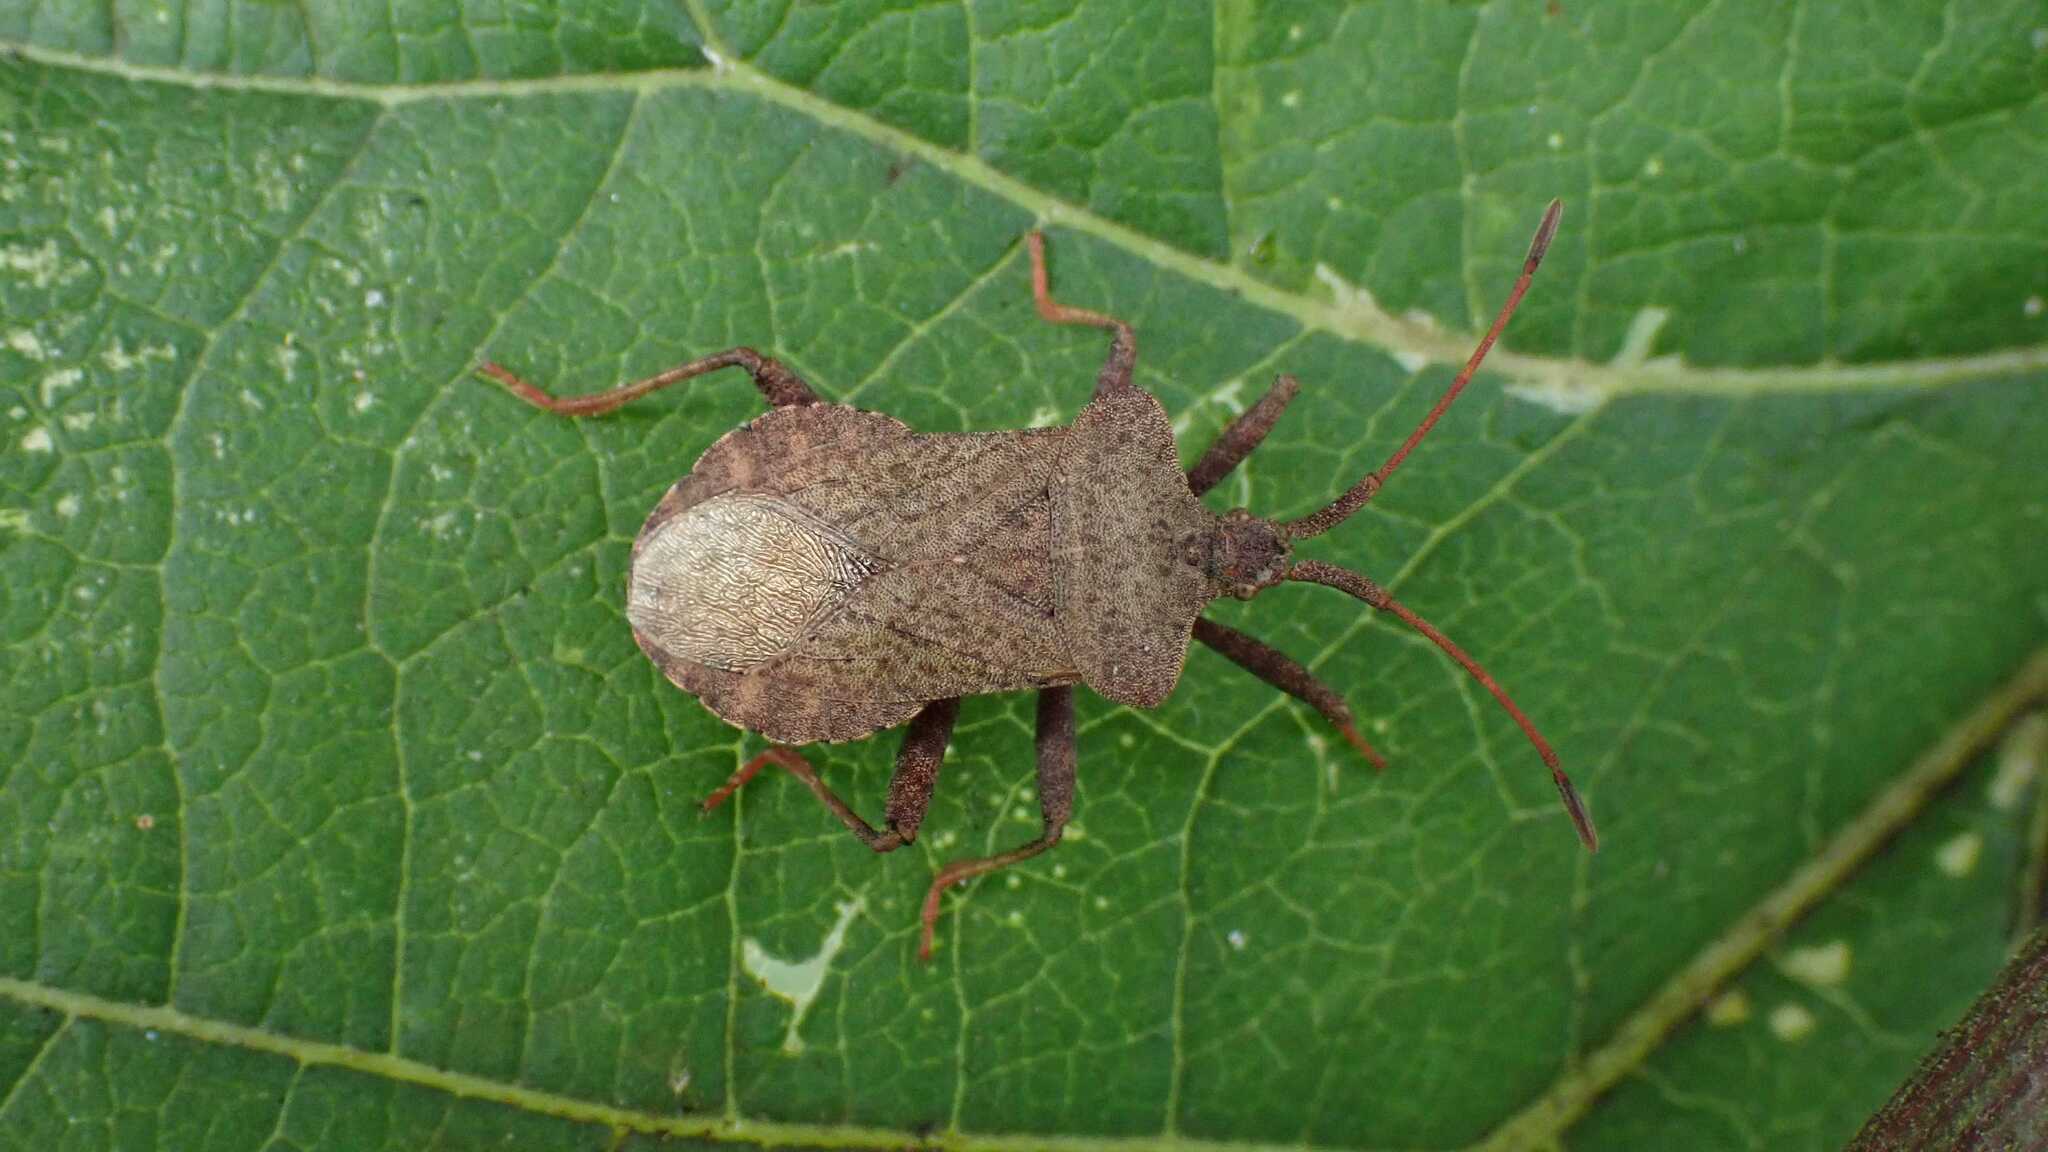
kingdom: Animalia
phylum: Arthropoda
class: Insecta
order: Hemiptera
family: Coreidae
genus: Coreus
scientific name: Coreus marginatus
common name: Dock bug
